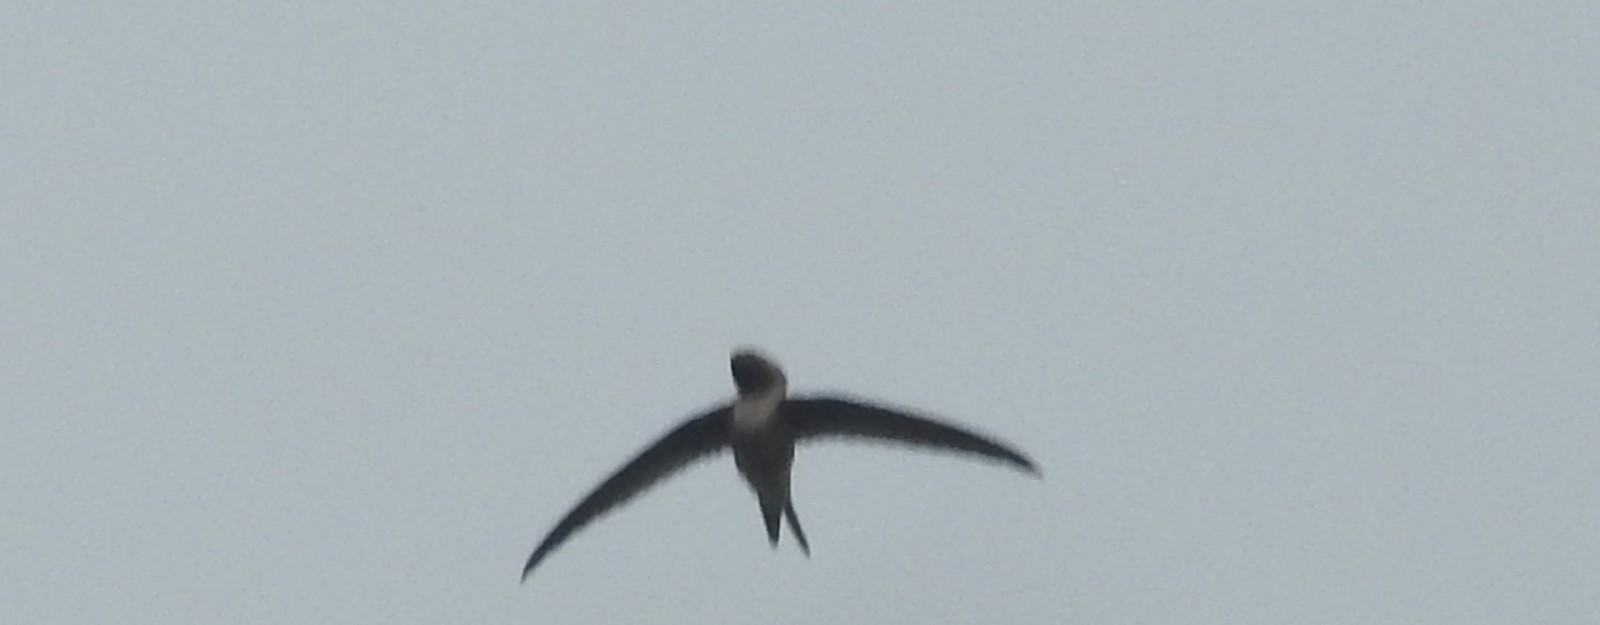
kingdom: Animalia
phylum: Chordata
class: Aves
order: Apodiformes
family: Hemiprocnidae
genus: Hemiprocne
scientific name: Hemiprocne coronata
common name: Crested treeswift
